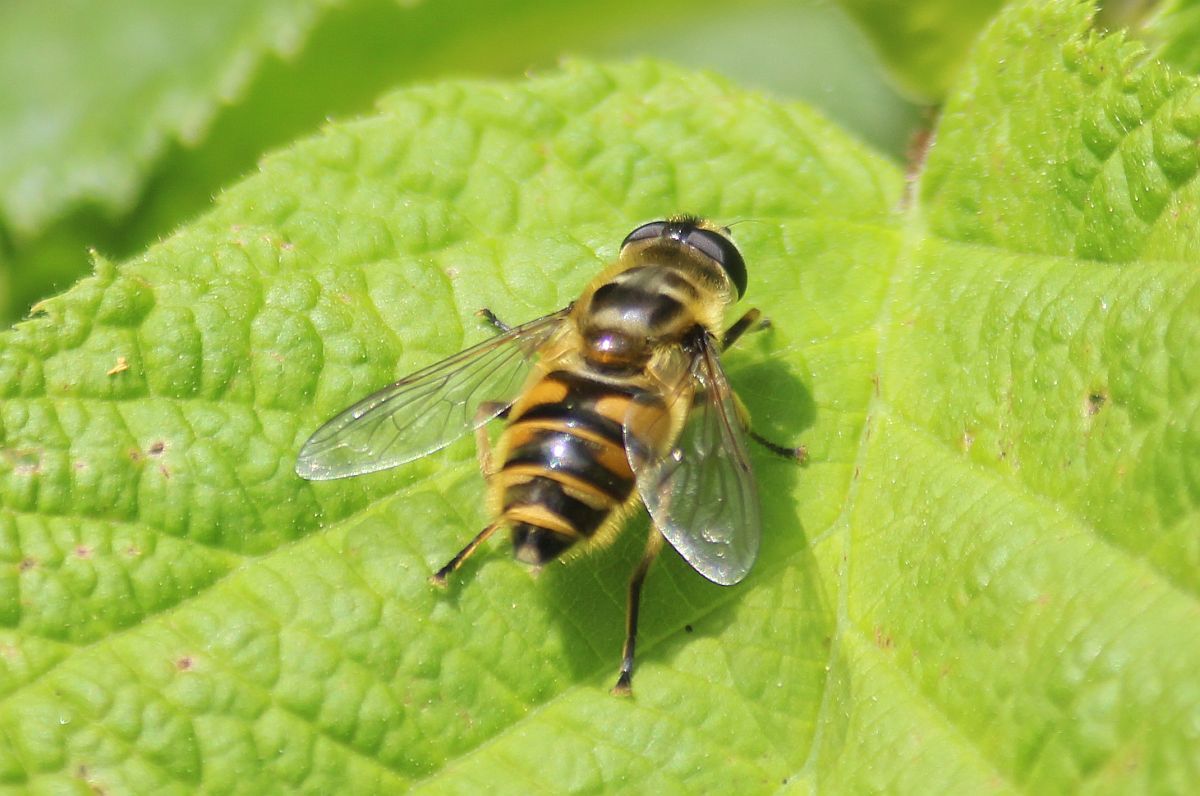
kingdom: Animalia
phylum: Arthropoda
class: Insecta
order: Diptera
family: Syrphidae
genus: Myathropa
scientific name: Myathropa florea
